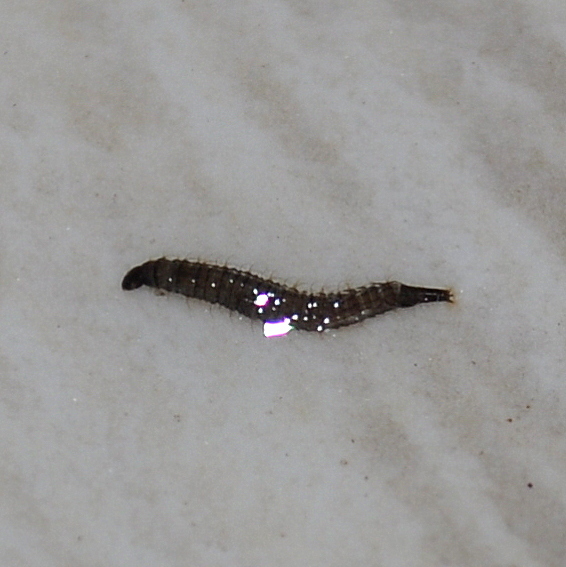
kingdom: Animalia
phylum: Arthropoda
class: Insecta
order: Diptera
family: Psychodidae
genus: Clogmia
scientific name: Clogmia albipunctatus
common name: White-spotted moth fly
